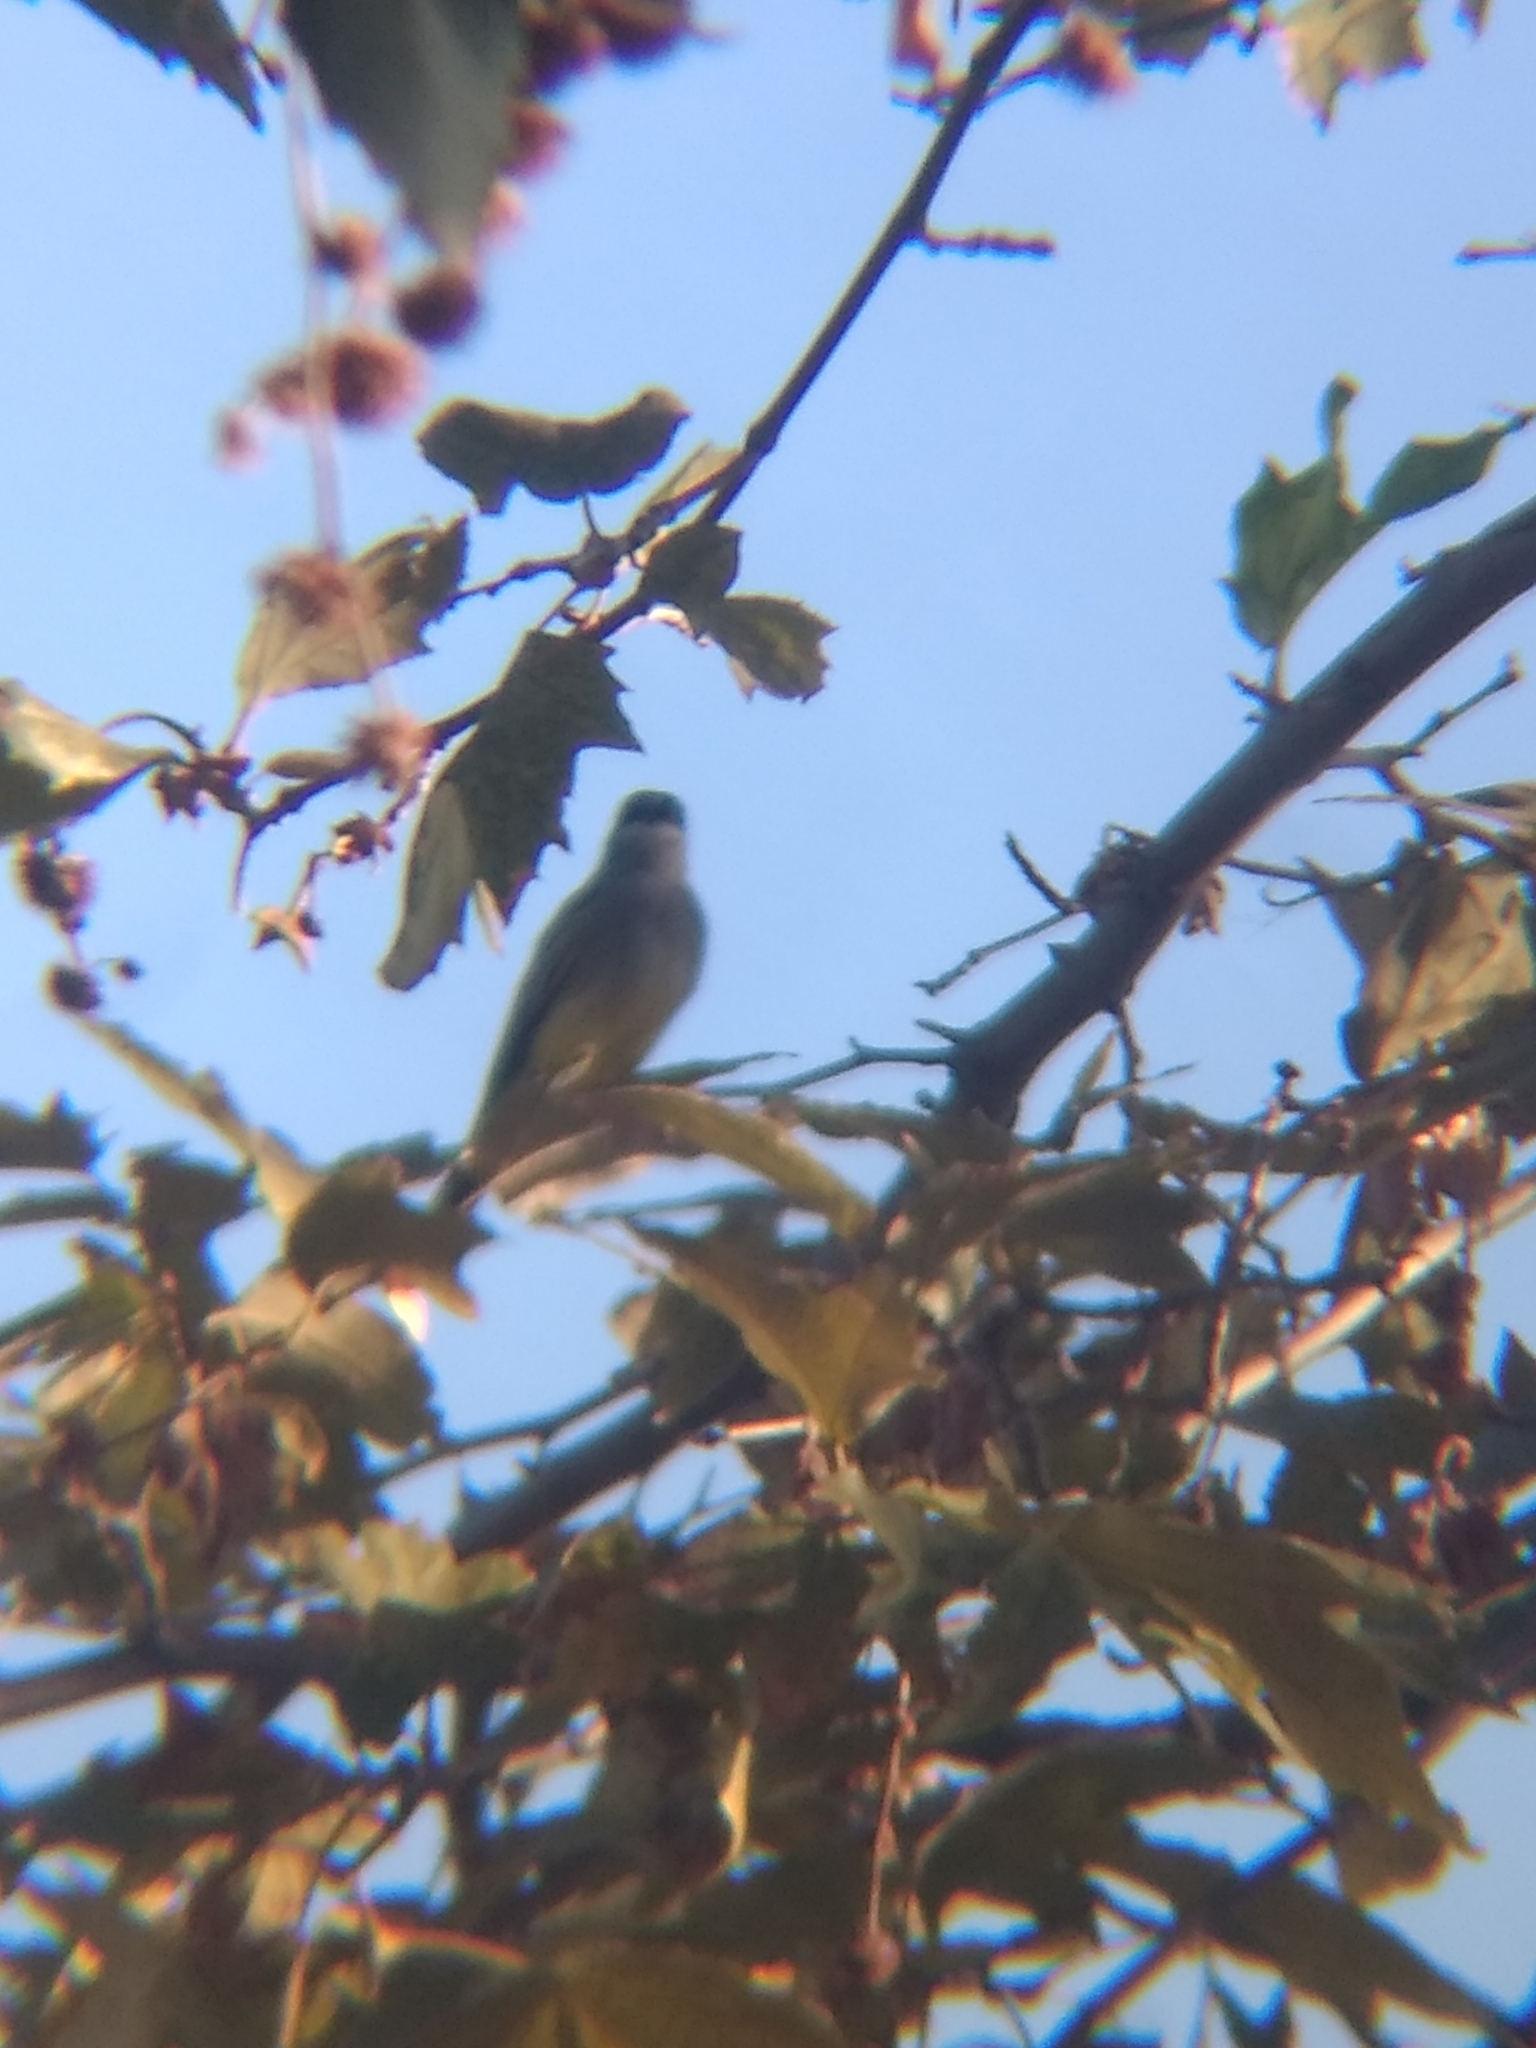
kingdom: Animalia
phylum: Chordata
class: Aves
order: Passeriformes
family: Tyrannidae
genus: Tyrannus
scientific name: Tyrannus vociferans
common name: Cassin's kingbird
